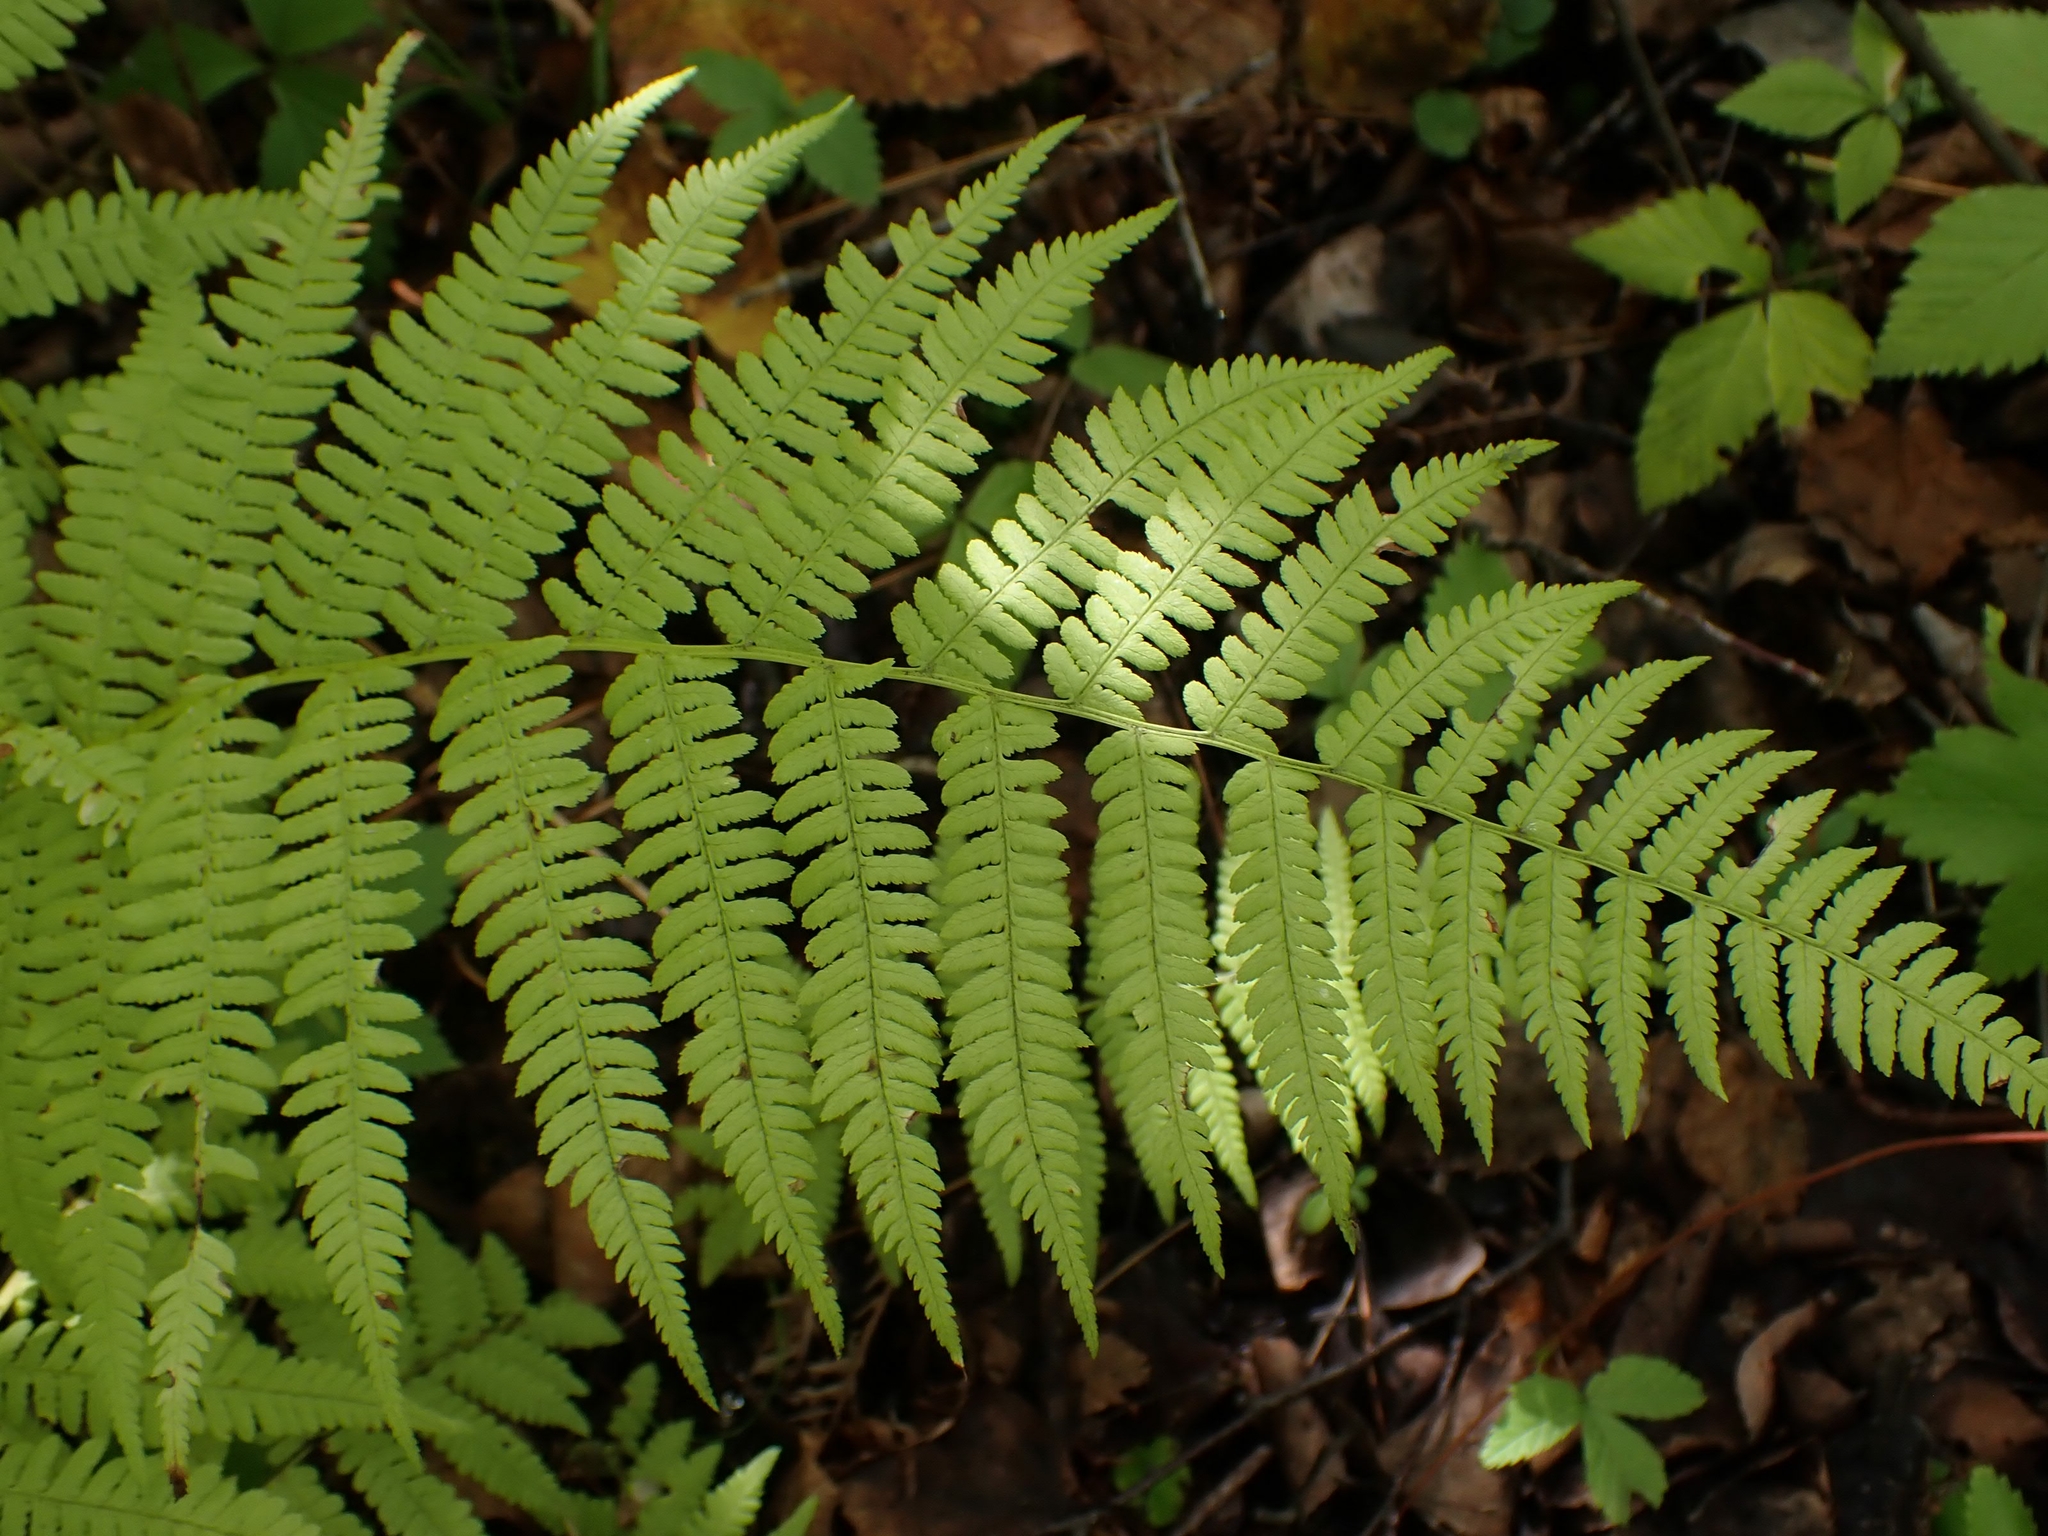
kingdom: Plantae
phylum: Tracheophyta
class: Polypodiopsida
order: Polypodiales
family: Athyriaceae
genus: Athyrium
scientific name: Athyrium angustum
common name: Northern lady fern
